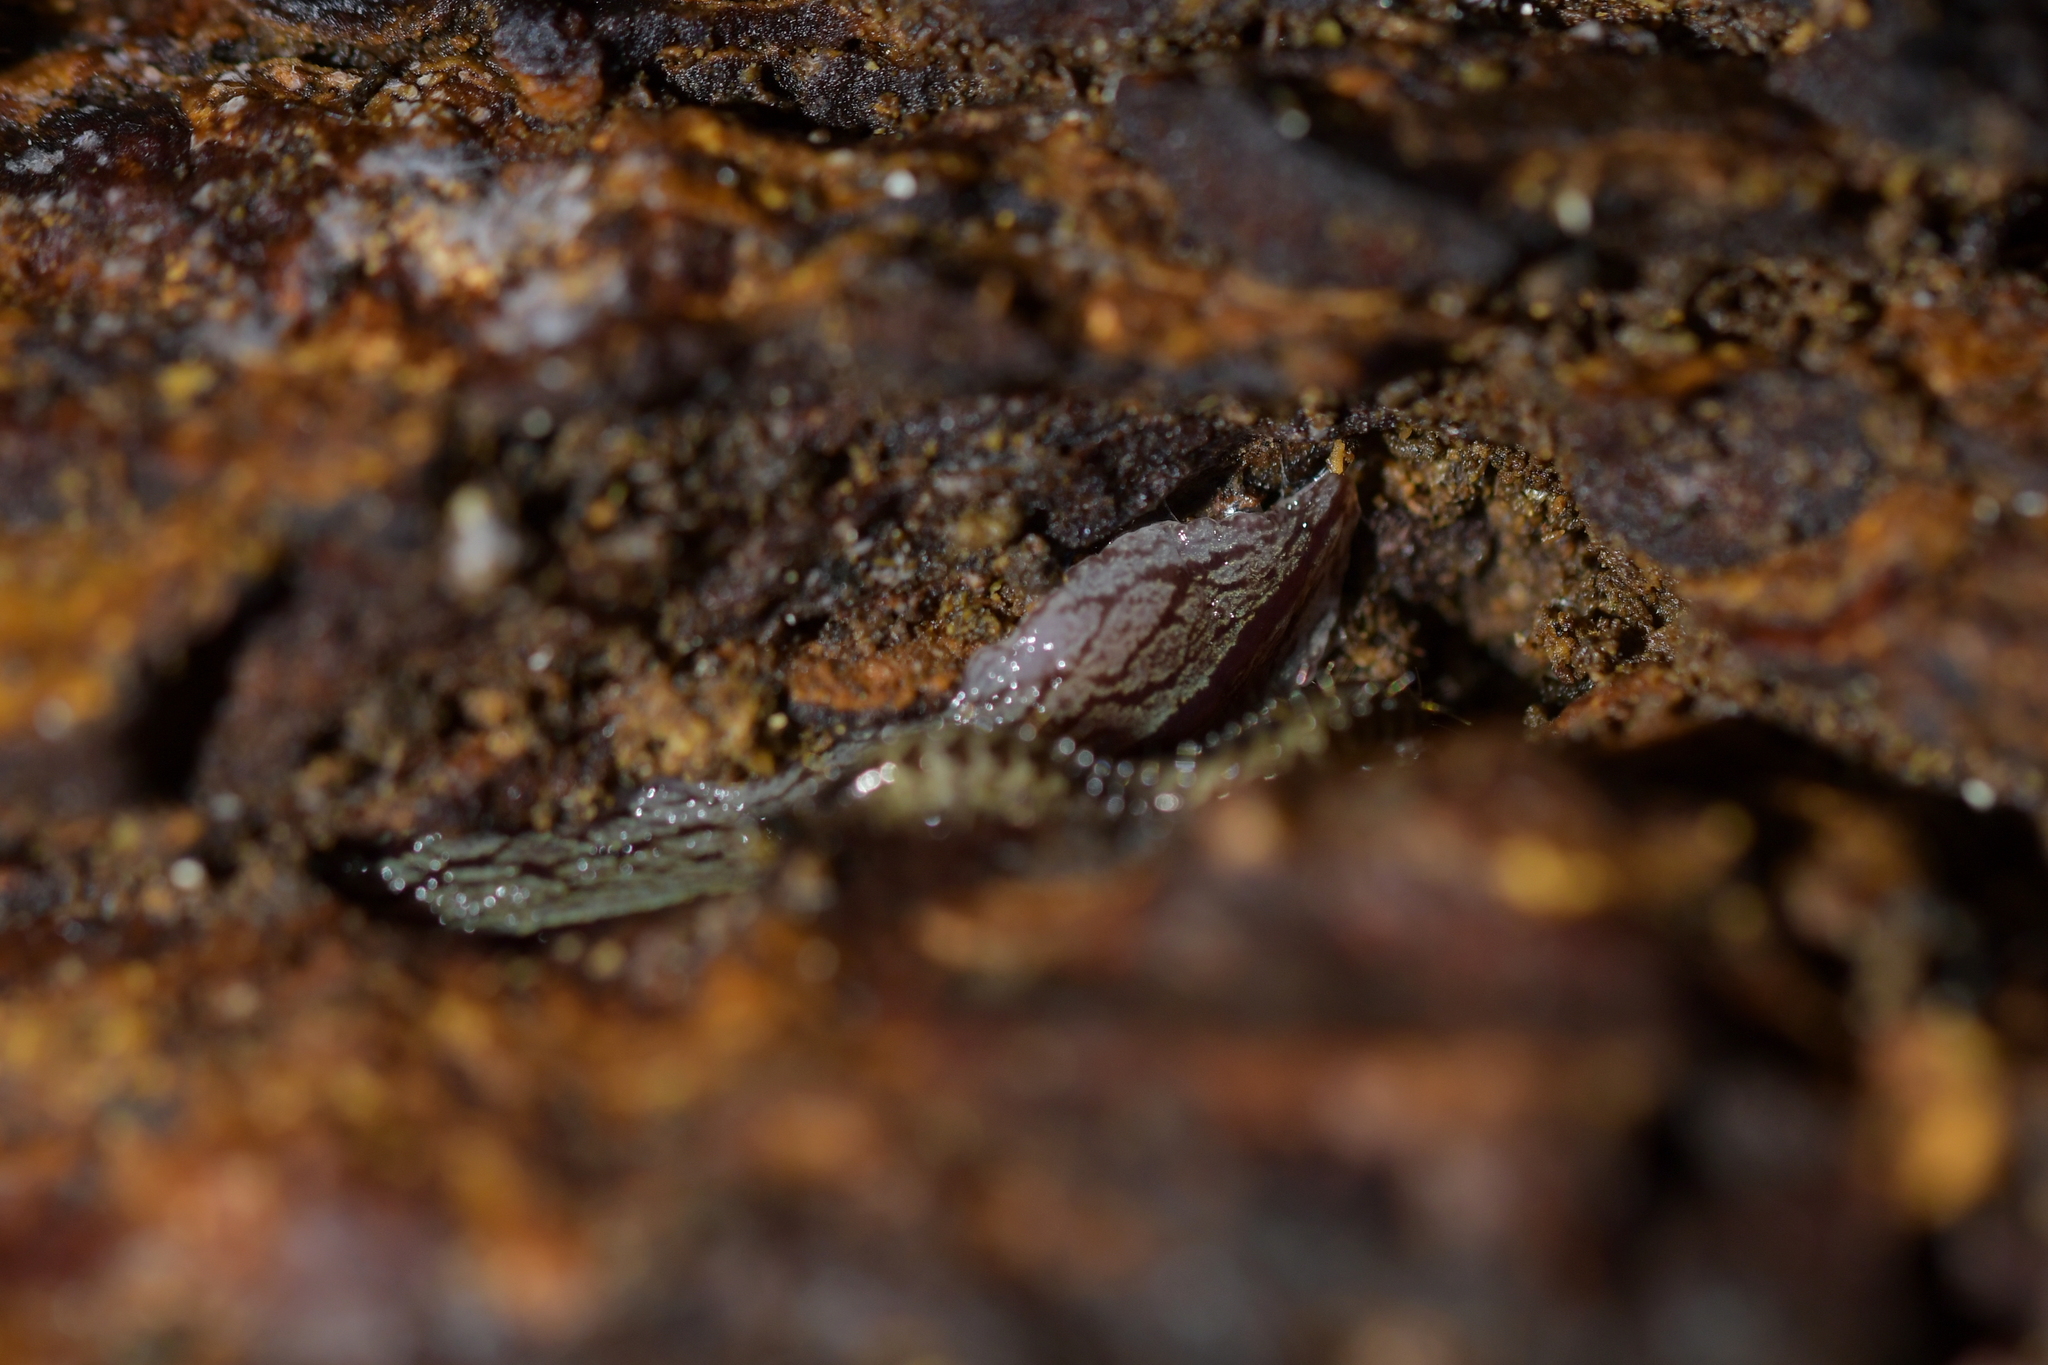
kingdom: Animalia
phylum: Platyhelminthes
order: Tricladida
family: Geoplanidae
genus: Artioposthia
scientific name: Artioposthia exulans
